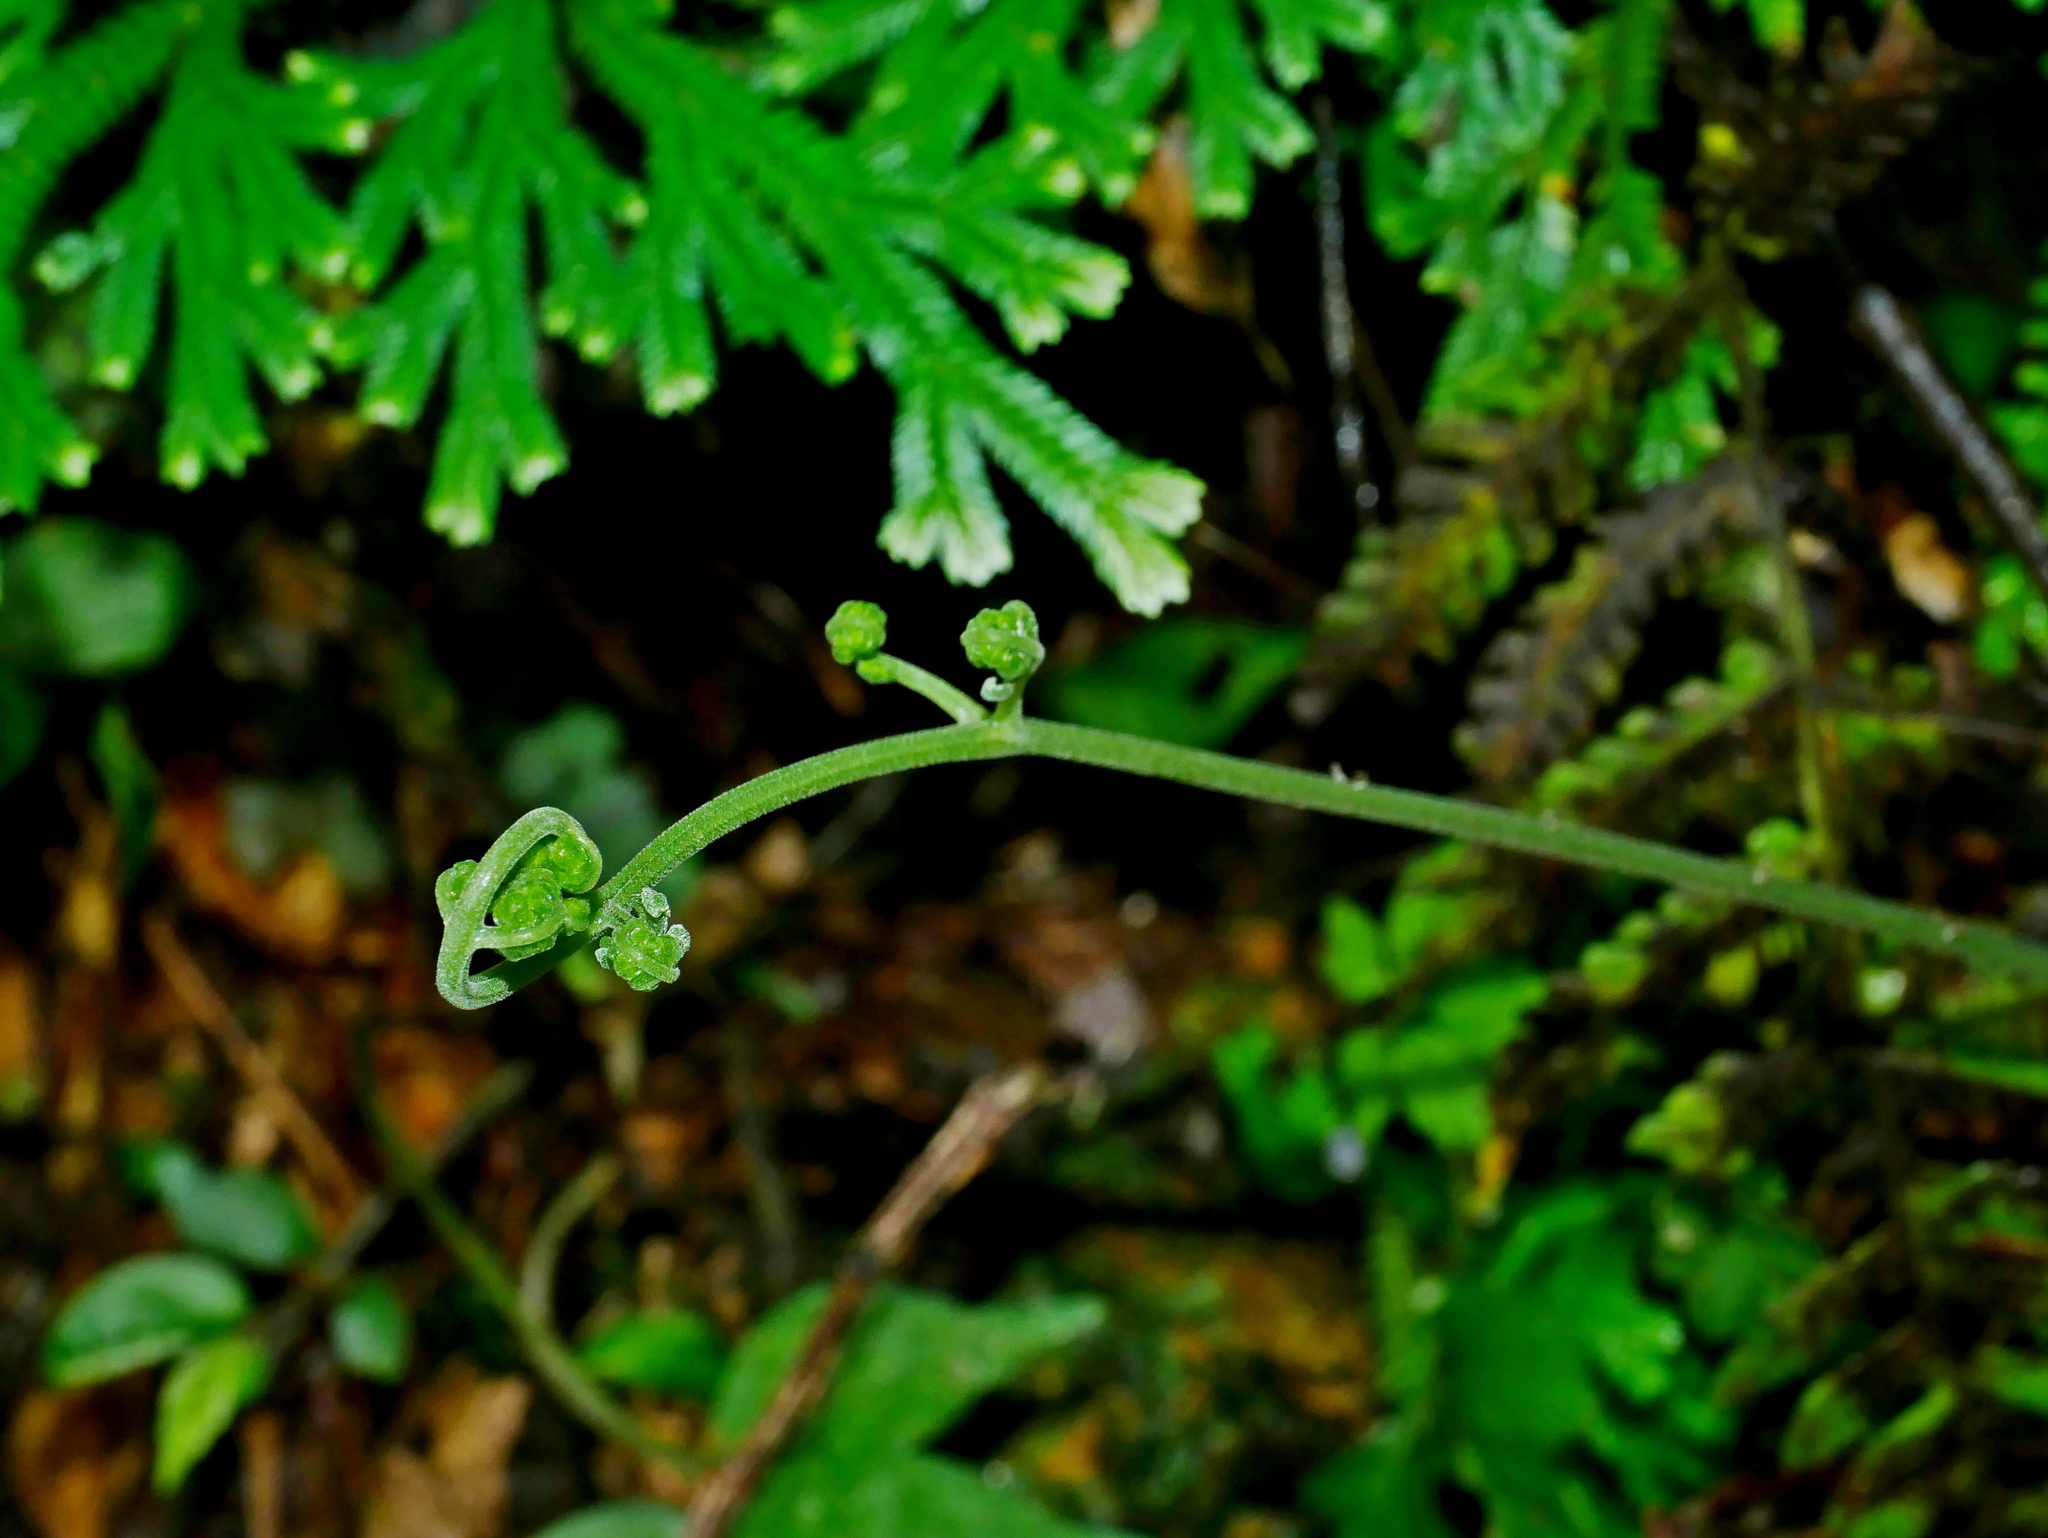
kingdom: Plantae
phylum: Tracheophyta
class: Polypodiopsida
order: Polypodiales
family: Dryopteridaceae
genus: Dryopteris
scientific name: Dryopteris sparsa
